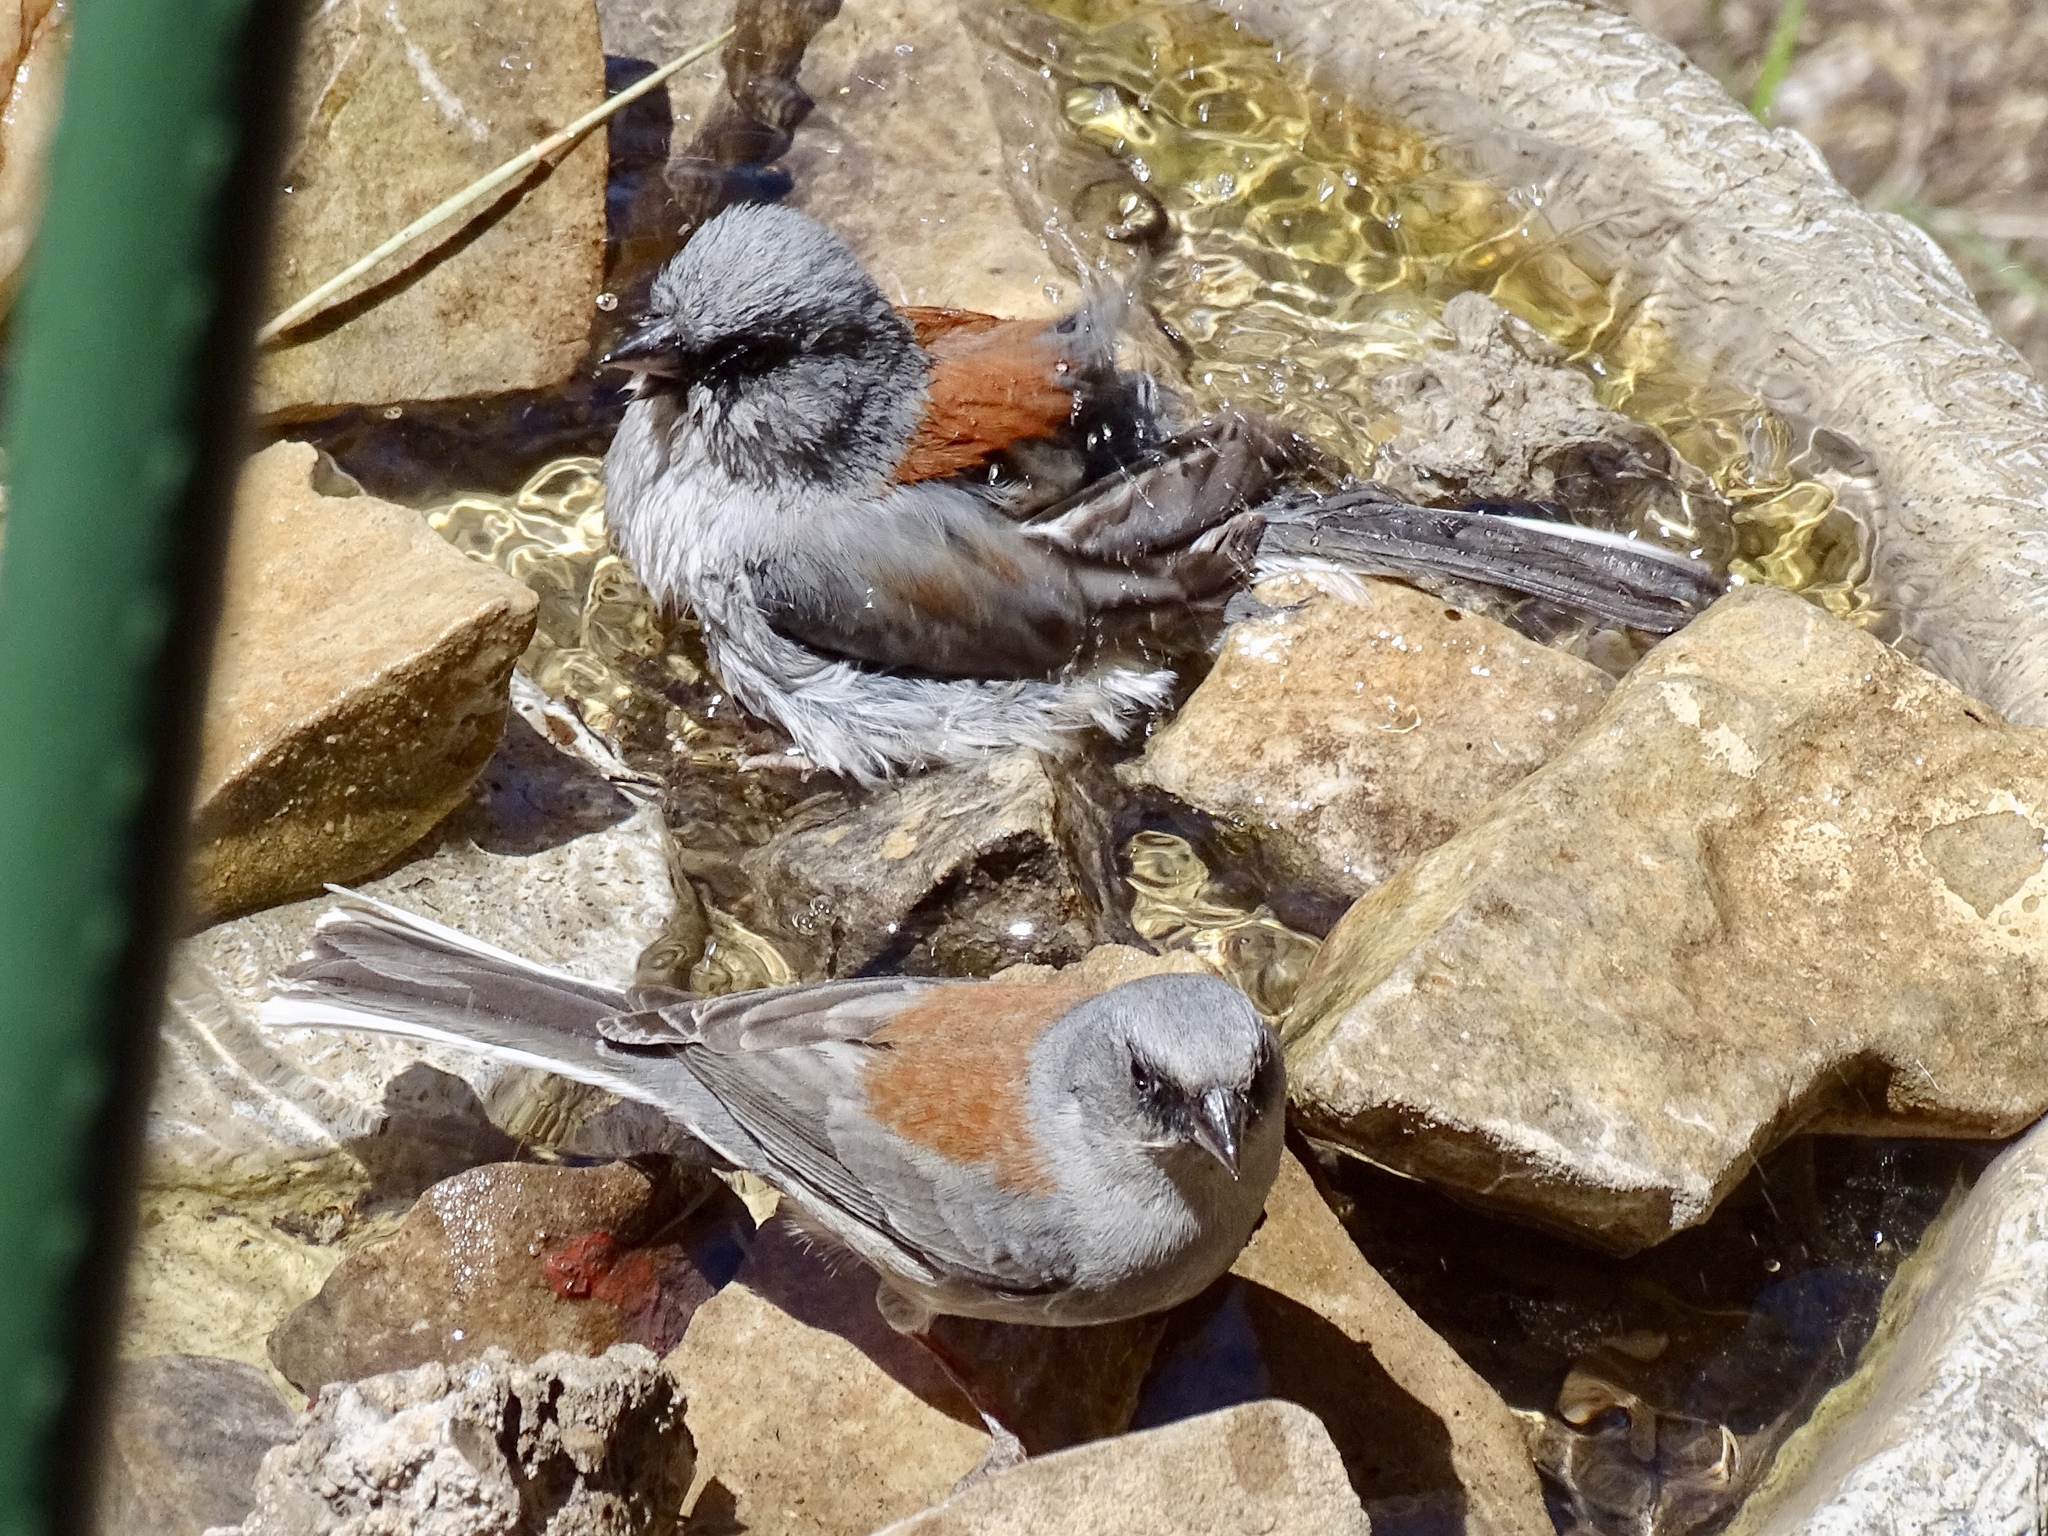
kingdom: Animalia
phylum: Chordata
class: Aves
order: Passeriformes
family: Passerellidae
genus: Junco
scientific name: Junco hyemalis
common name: Dark-eyed junco
